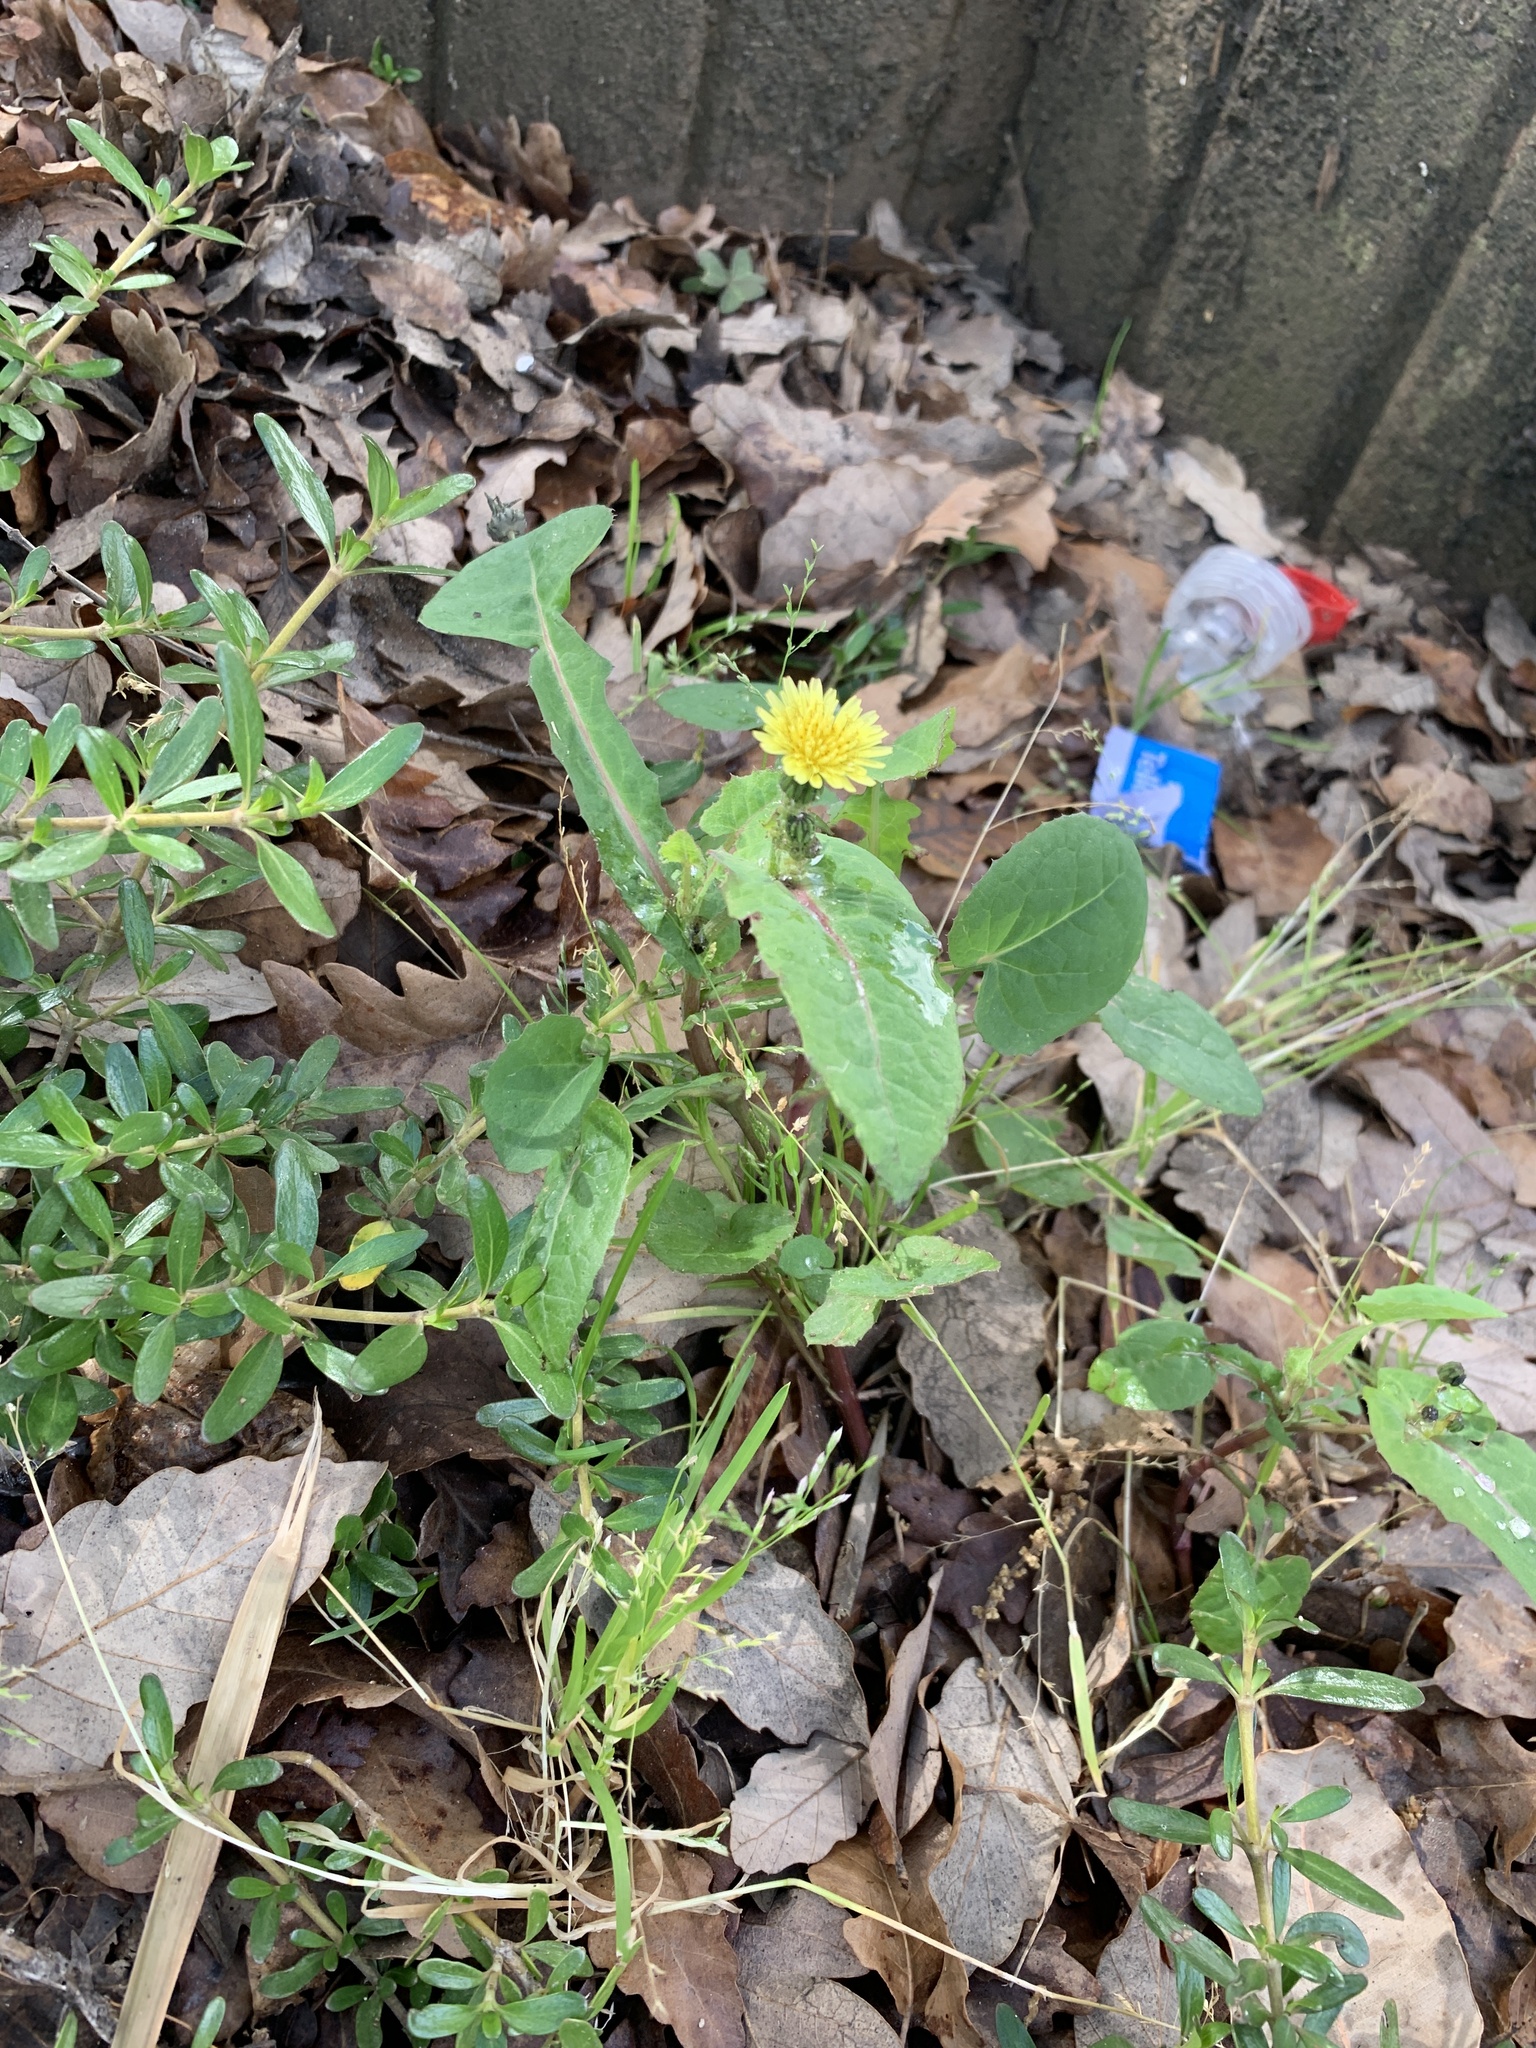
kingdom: Plantae
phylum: Tracheophyta
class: Magnoliopsida
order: Asterales
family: Asteraceae
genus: Sonchus
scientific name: Sonchus oleraceus
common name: Common sowthistle
